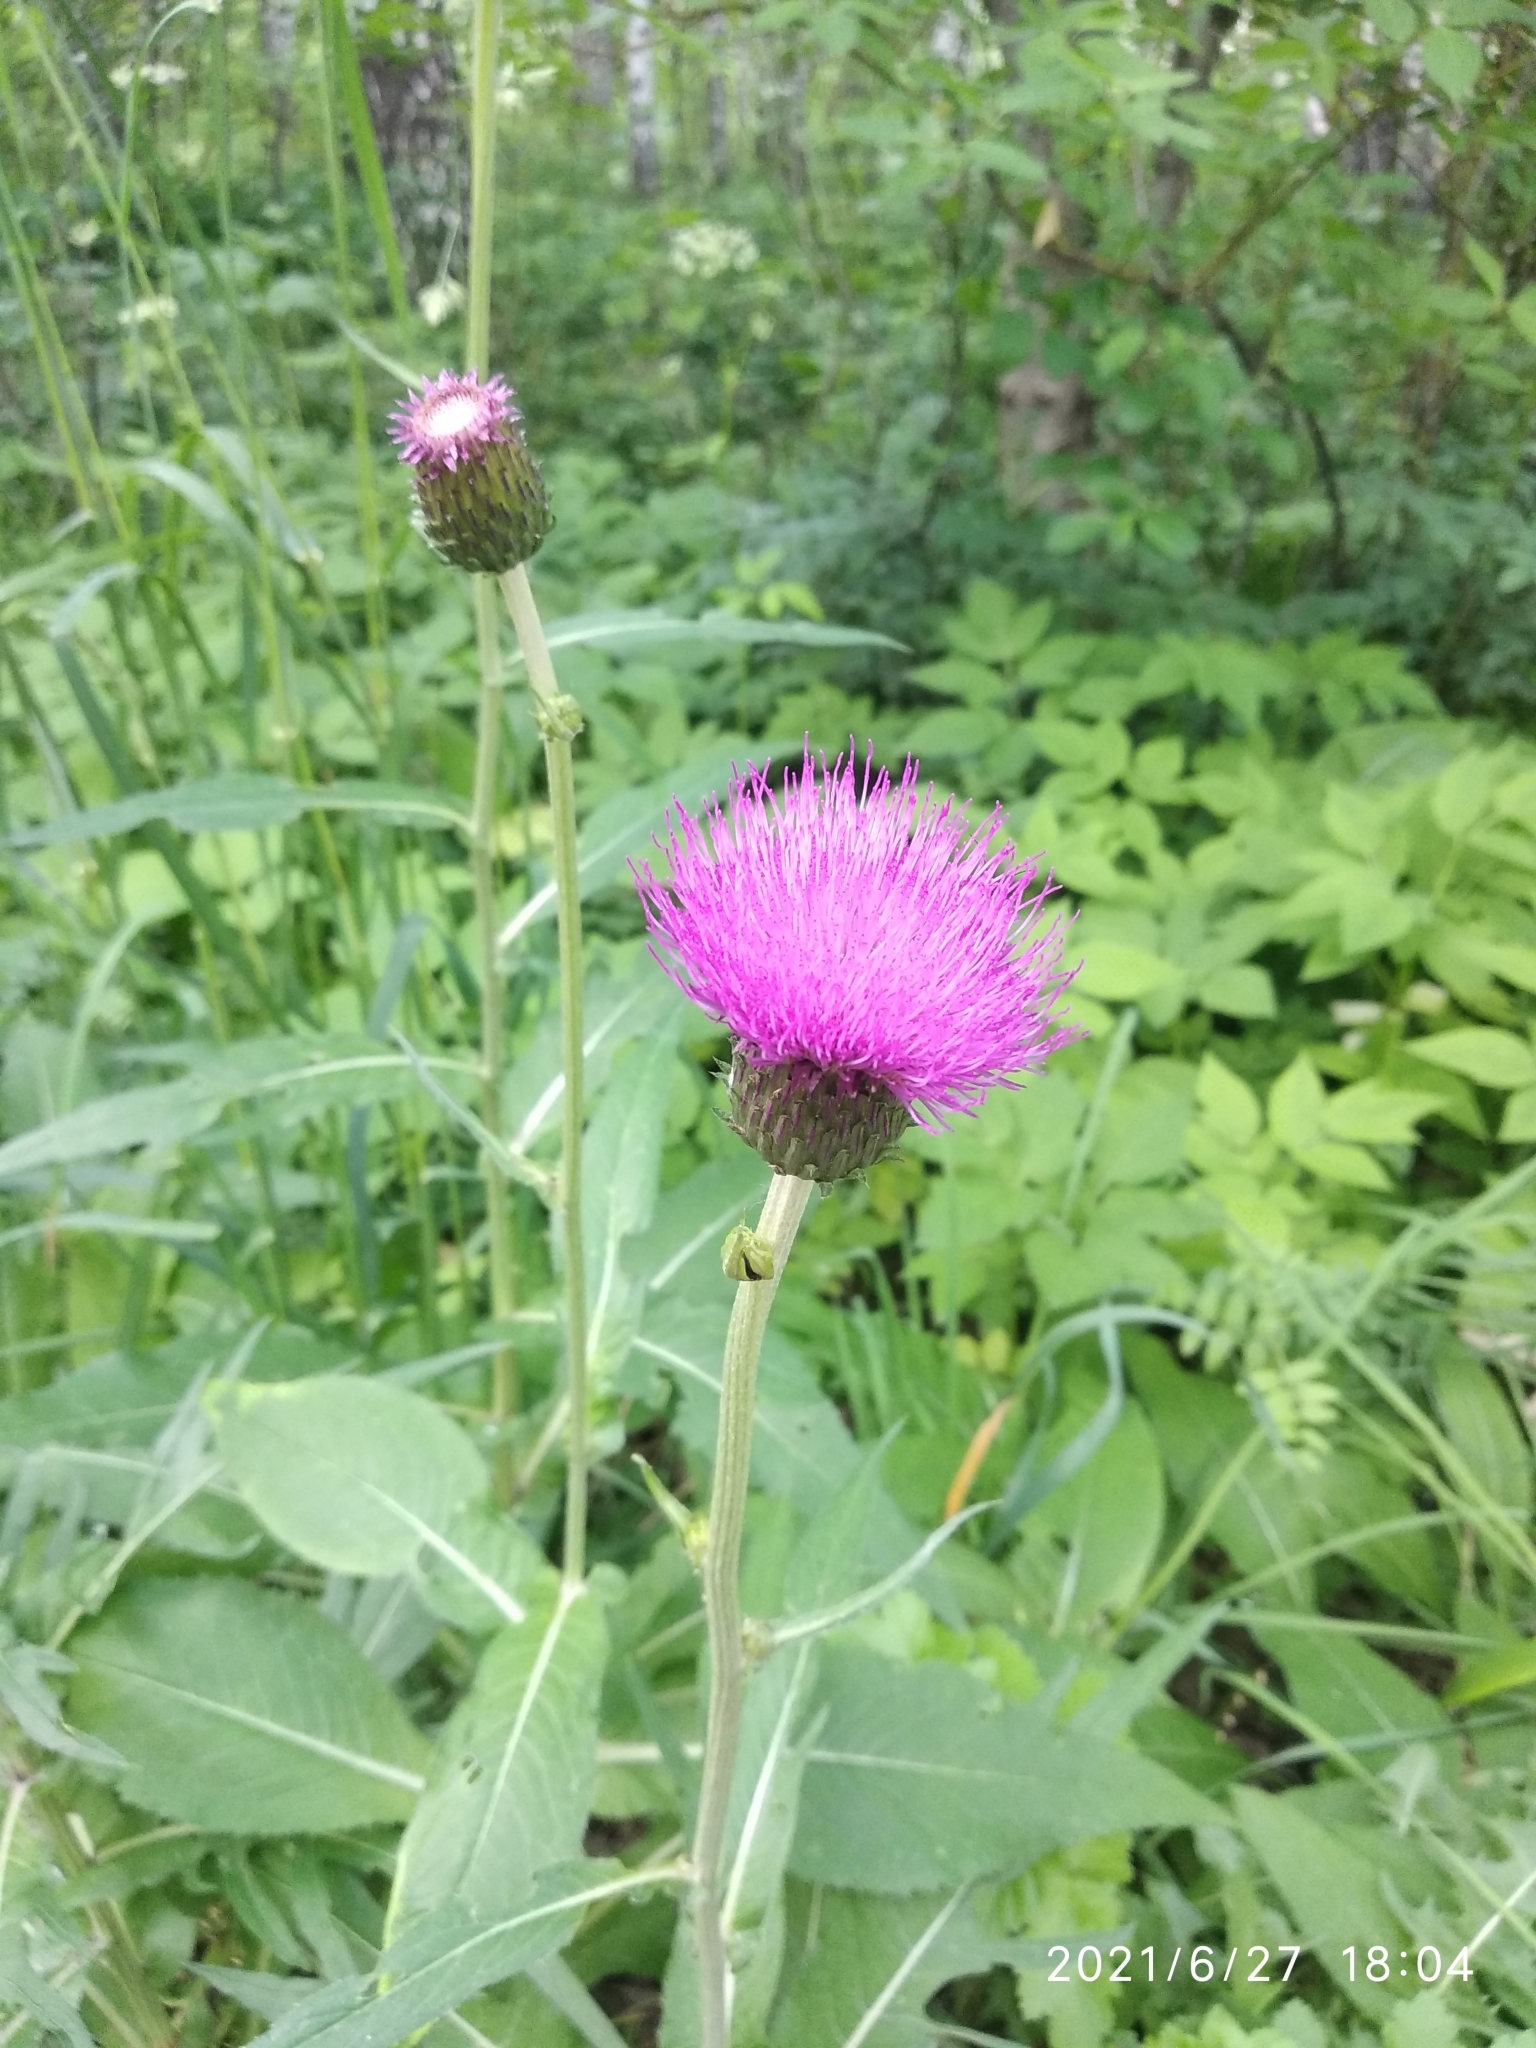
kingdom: Plantae
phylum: Tracheophyta
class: Magnoliopsida
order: Asterales
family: Asteraceae
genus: Cirsium
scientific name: Cirsium heterophyllum
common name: Melancholy thistle
